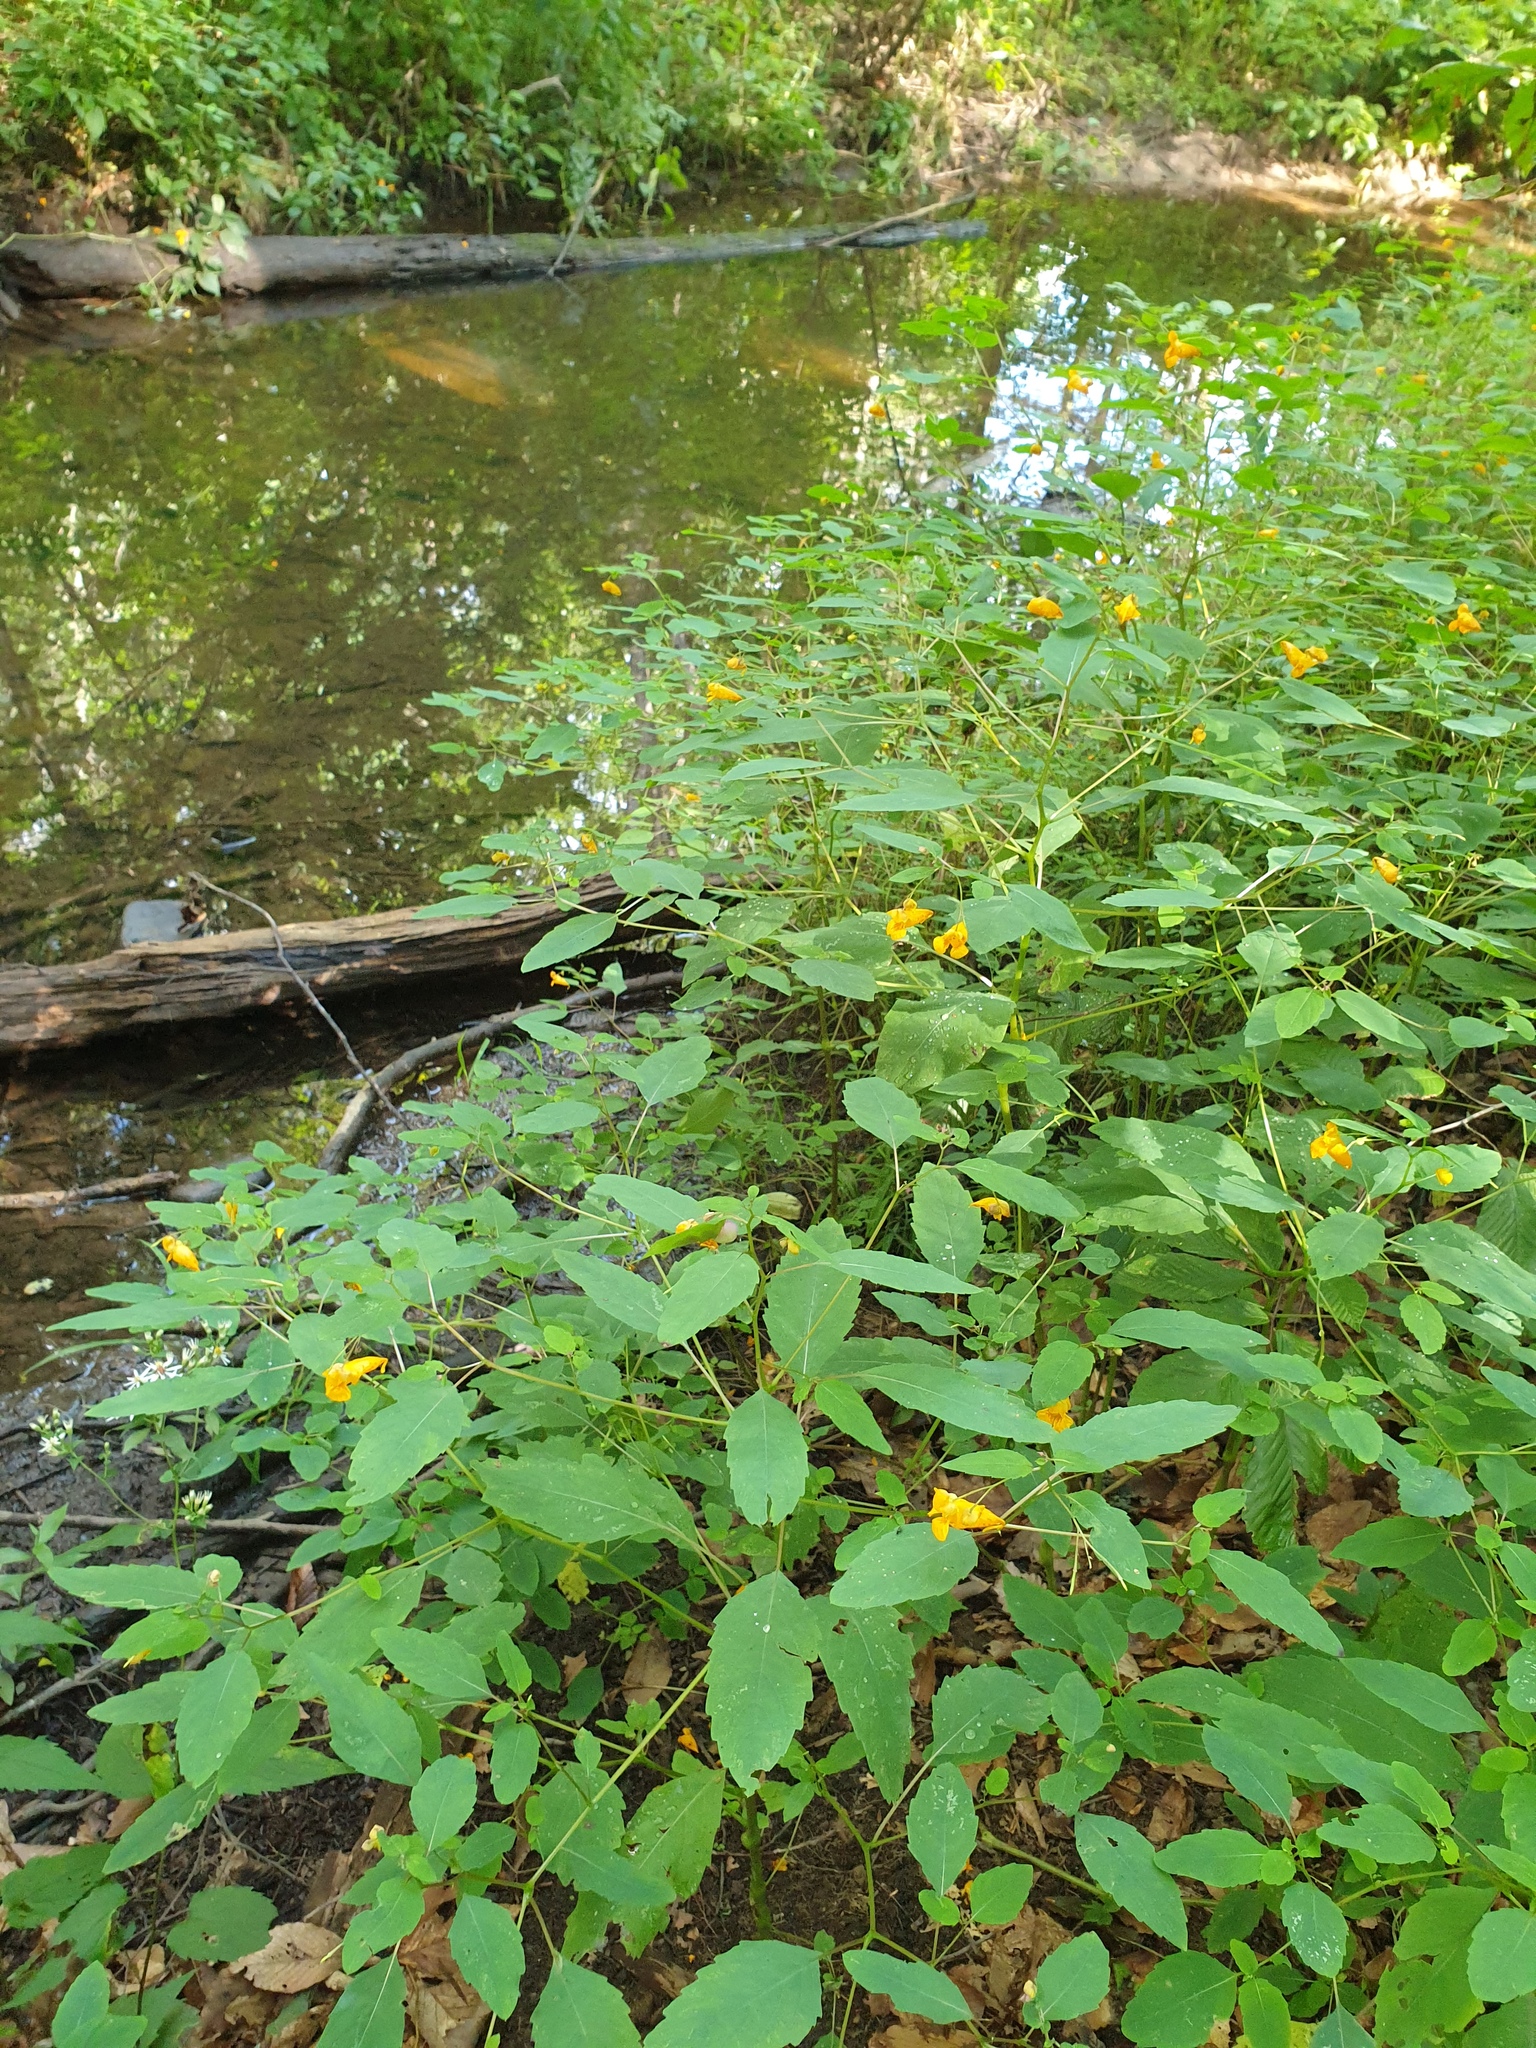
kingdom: Plantae
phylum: Tracheophyta
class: Magnoliopsida
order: Ericales
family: Balsaminaceae
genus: Impatiens
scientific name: Impatiens capensis
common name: Orange balsam
